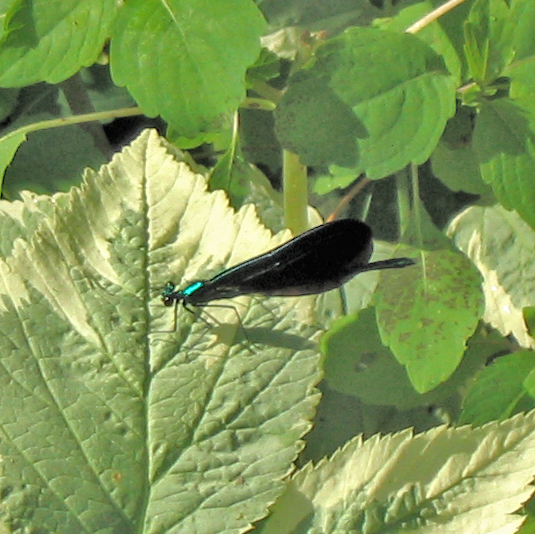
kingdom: Animalia
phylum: Arthropoda
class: Insecta
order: Odonata
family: Calopterygidae
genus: Calopteryx
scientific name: Calopteryx maculata
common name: Ebony jewelwing
